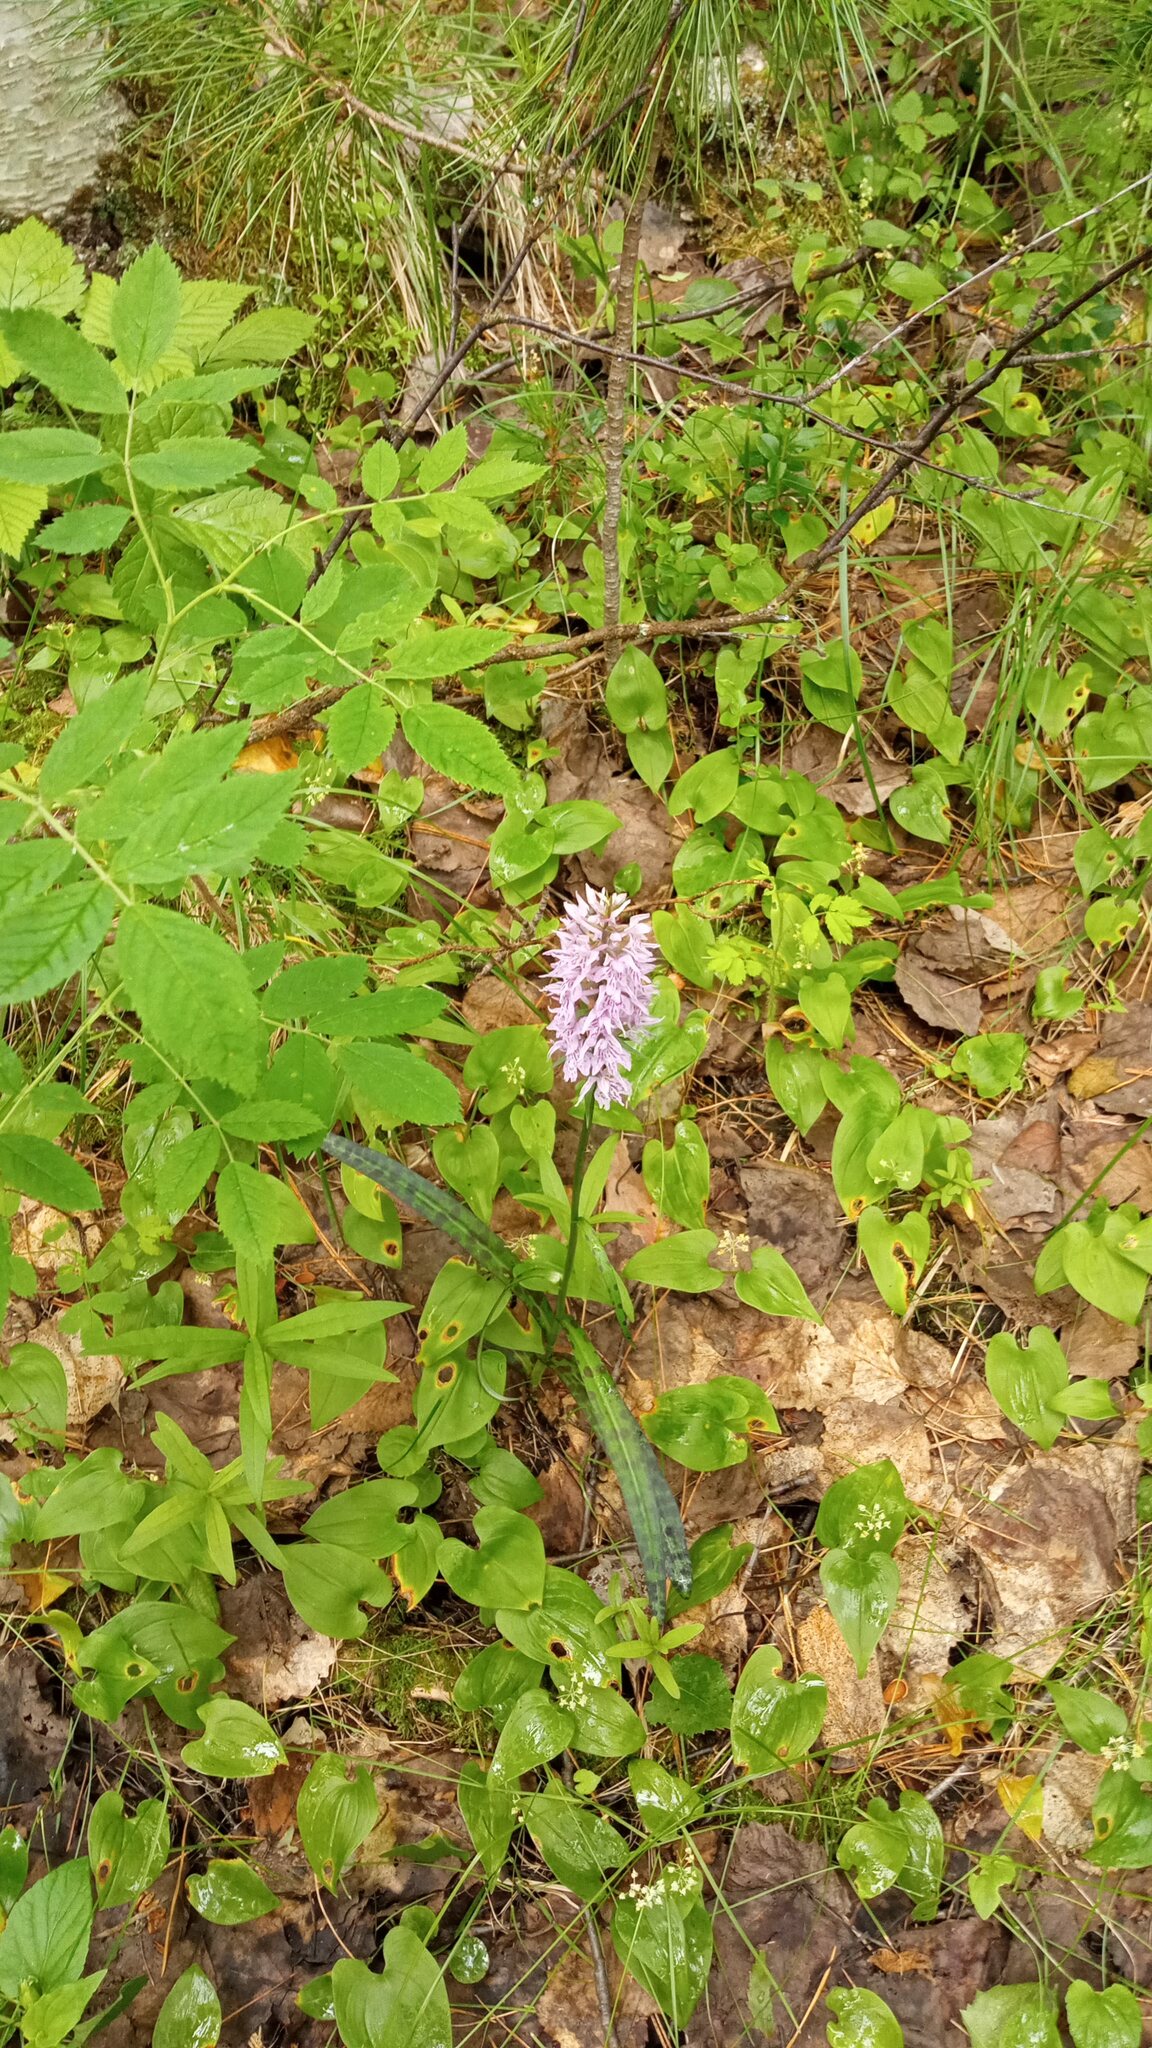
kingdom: Plantae
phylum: Tracheophyta
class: Liliopsida
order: Asparagales
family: Orchidaceae
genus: Dactylorhiza
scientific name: Dactylorhiza maculata
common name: Heath spotted-orchid
